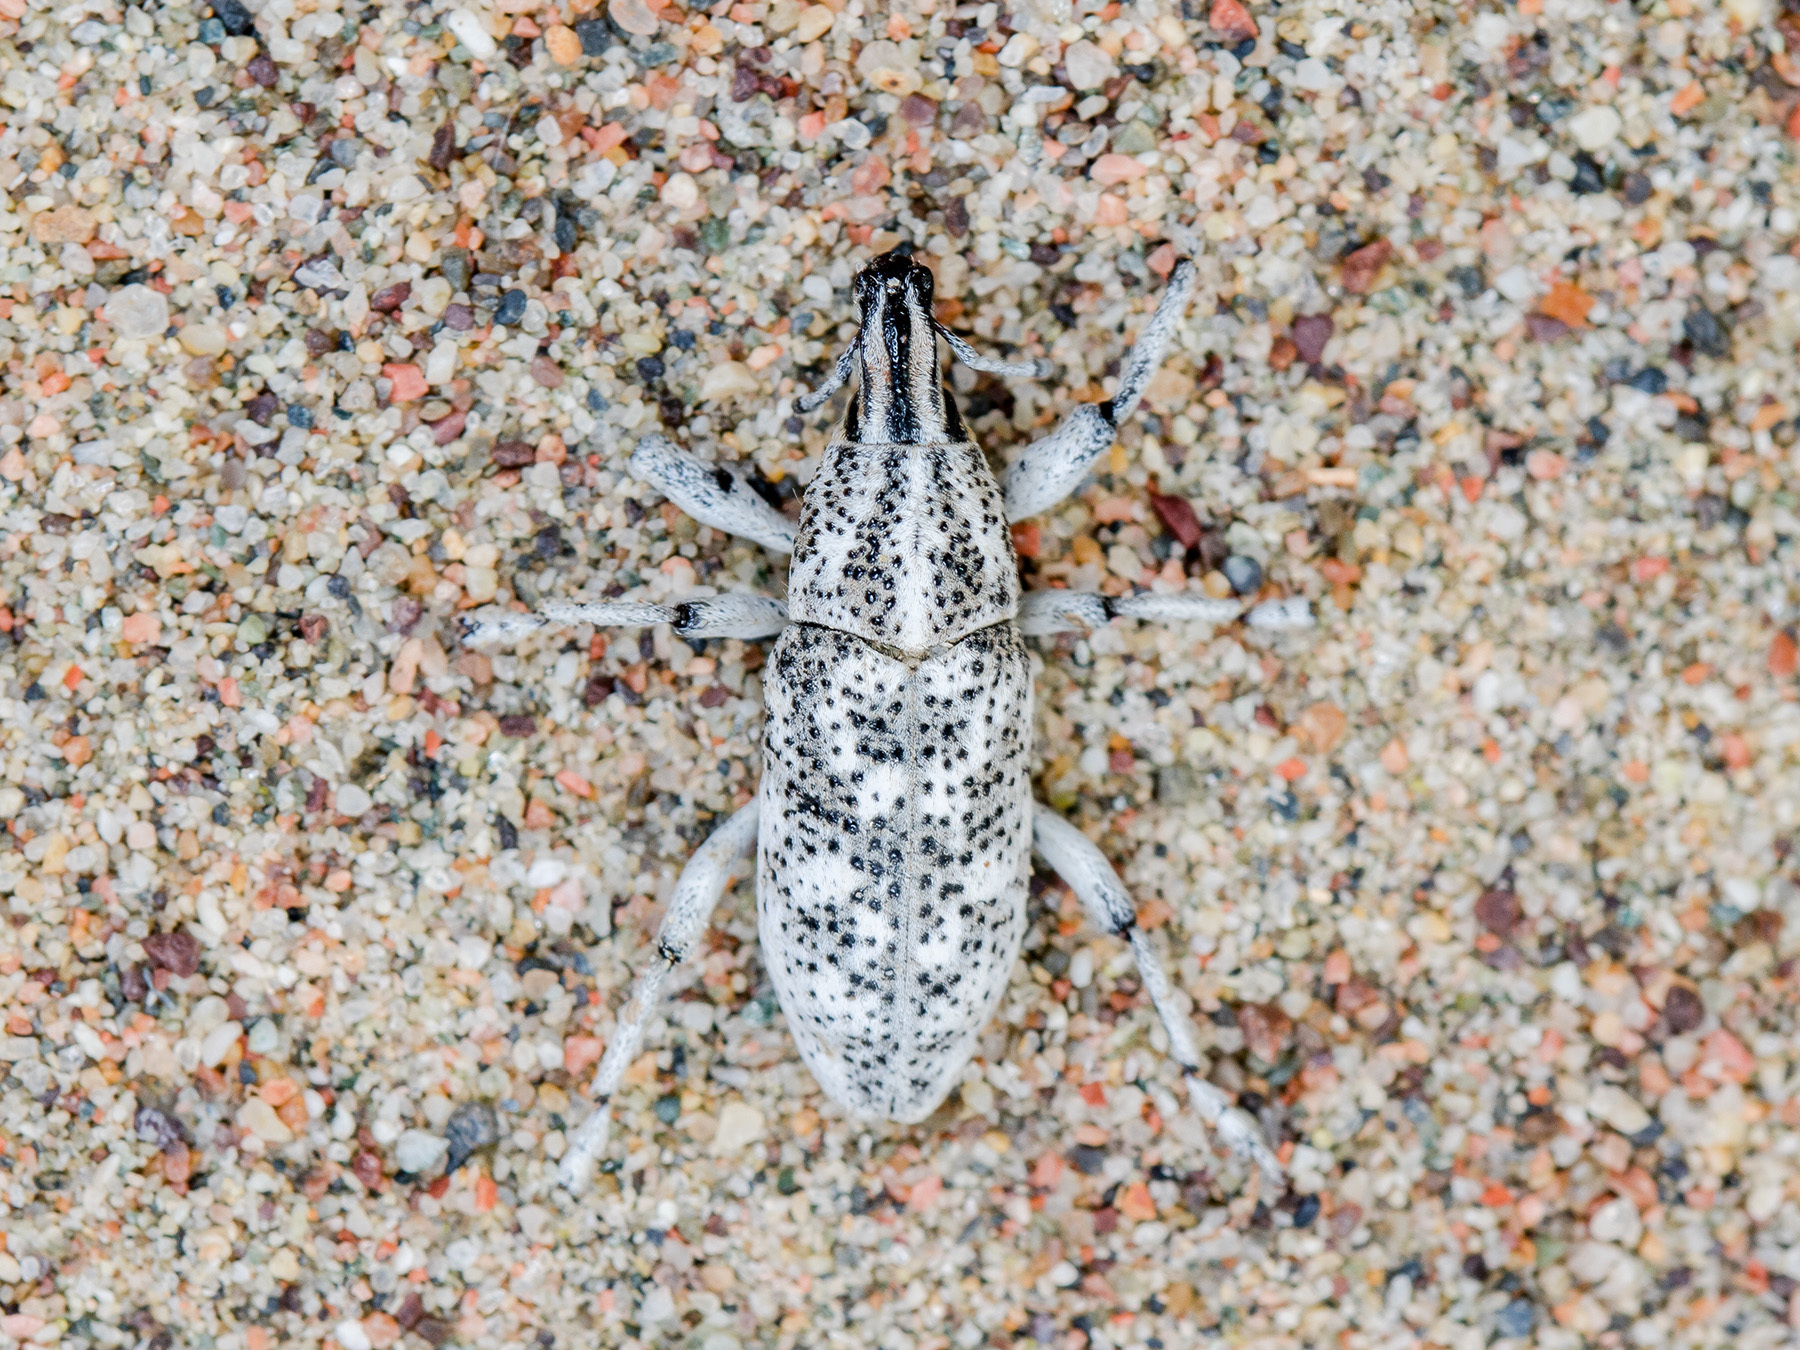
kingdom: Animalia
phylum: Arthropoda
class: Insecta
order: Coleoptera
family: Curculionidae
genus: Cyphocleonus
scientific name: Cyphocleonus cenchrus
